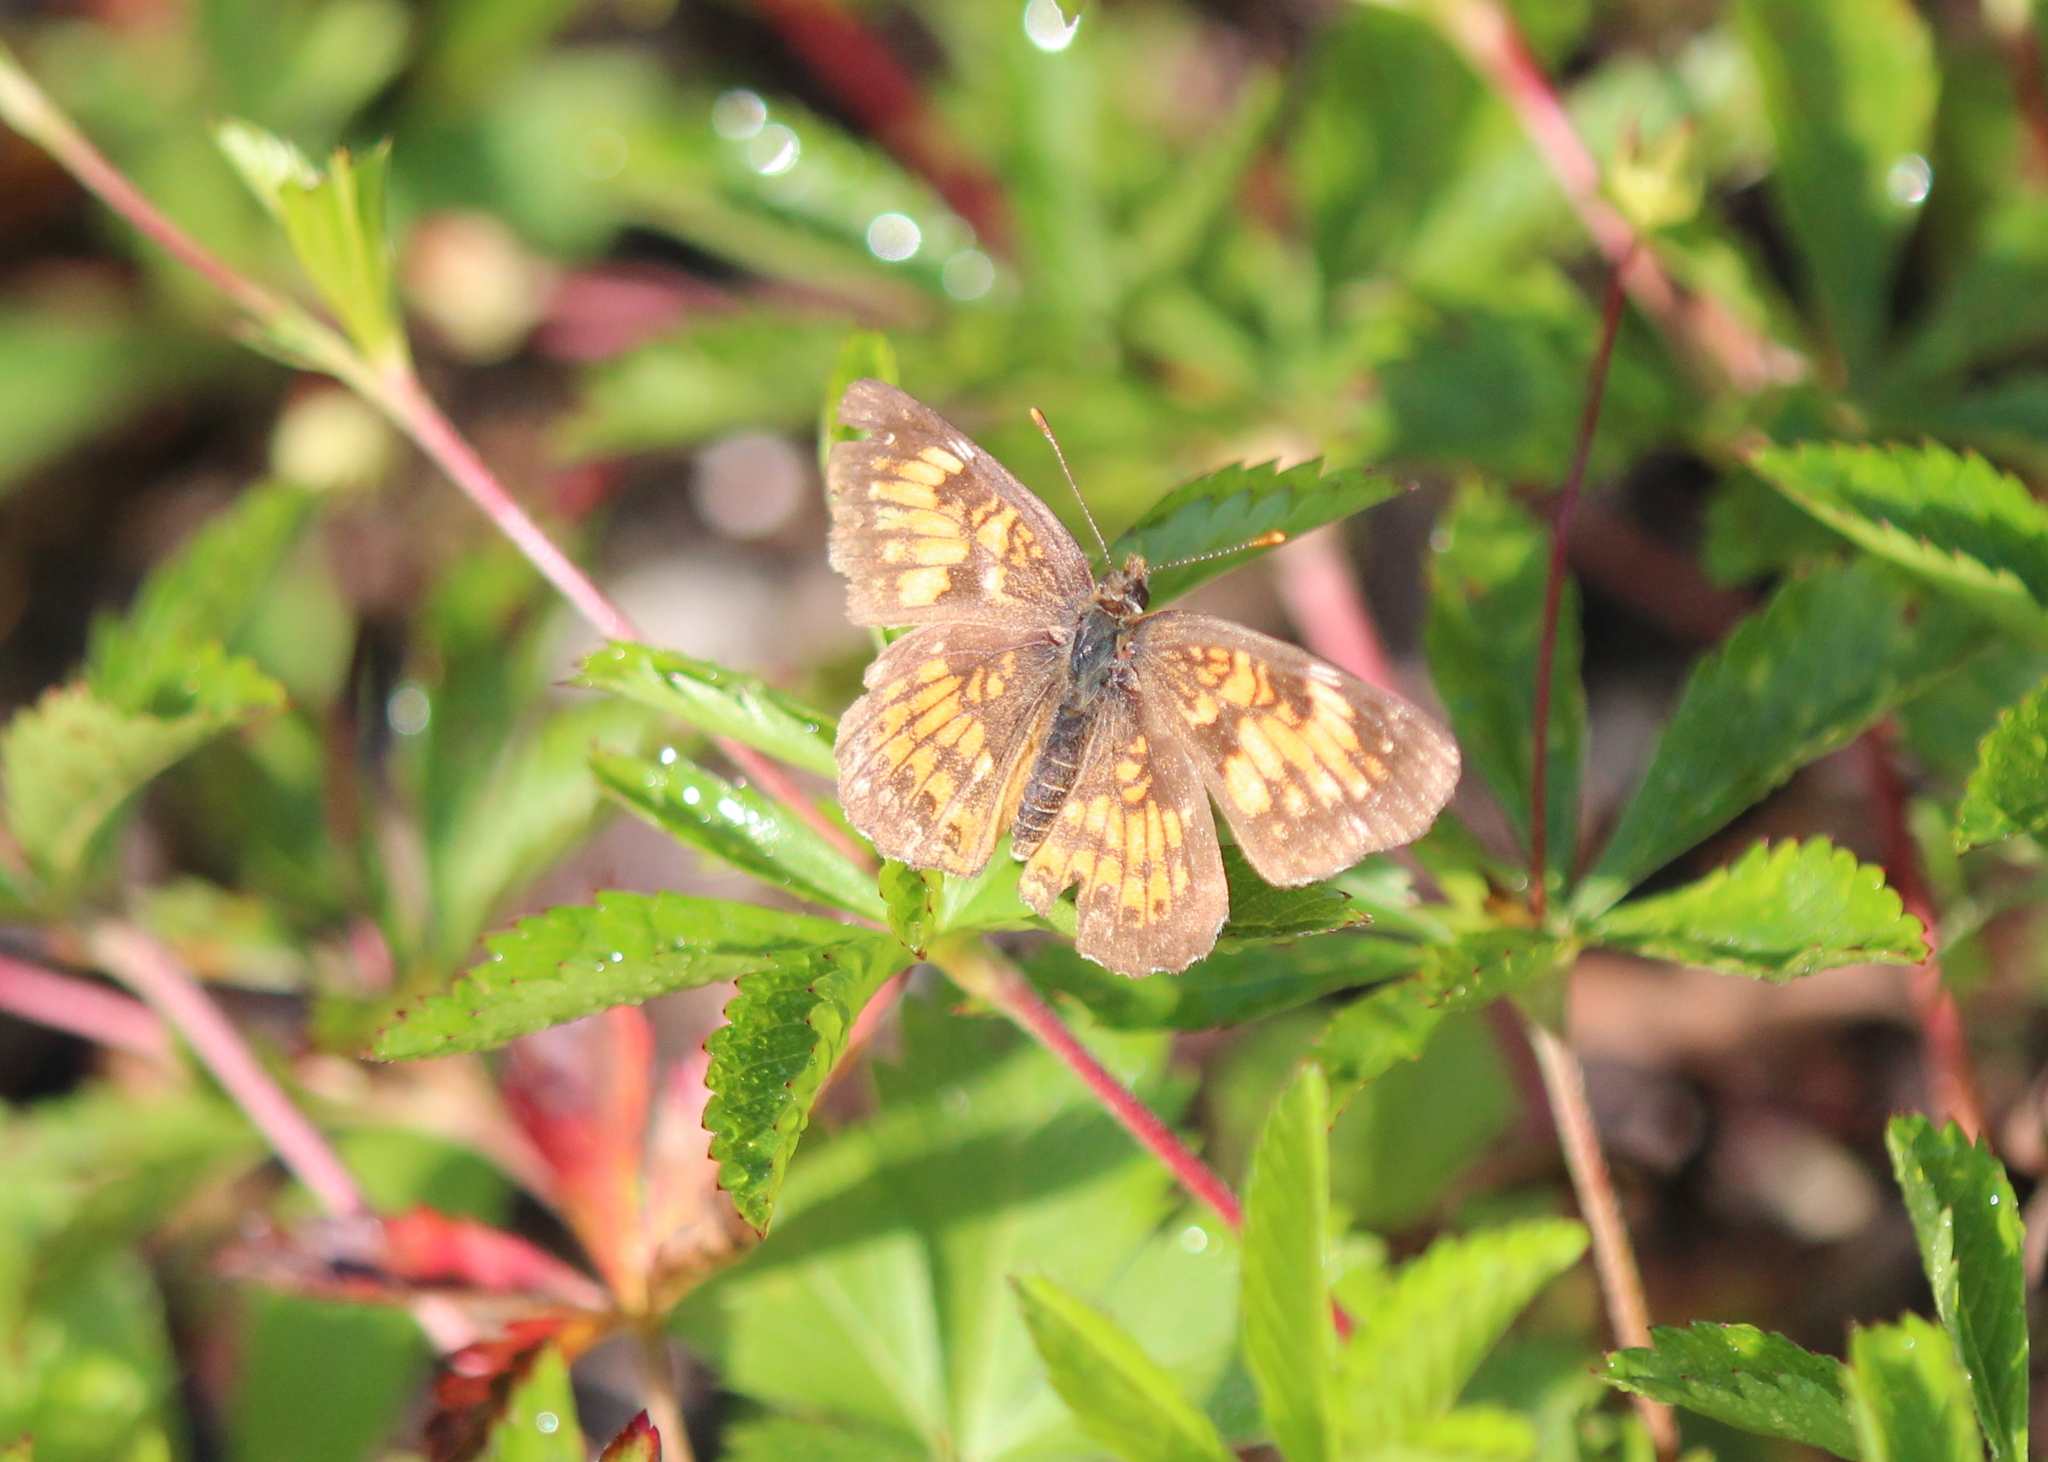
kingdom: Animalia
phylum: Arthropoda
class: Insecta
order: Lepidoptera
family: Nymphalidae
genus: Chlosyne
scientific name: Chlosyne harrisii
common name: Harris's checkerspot
